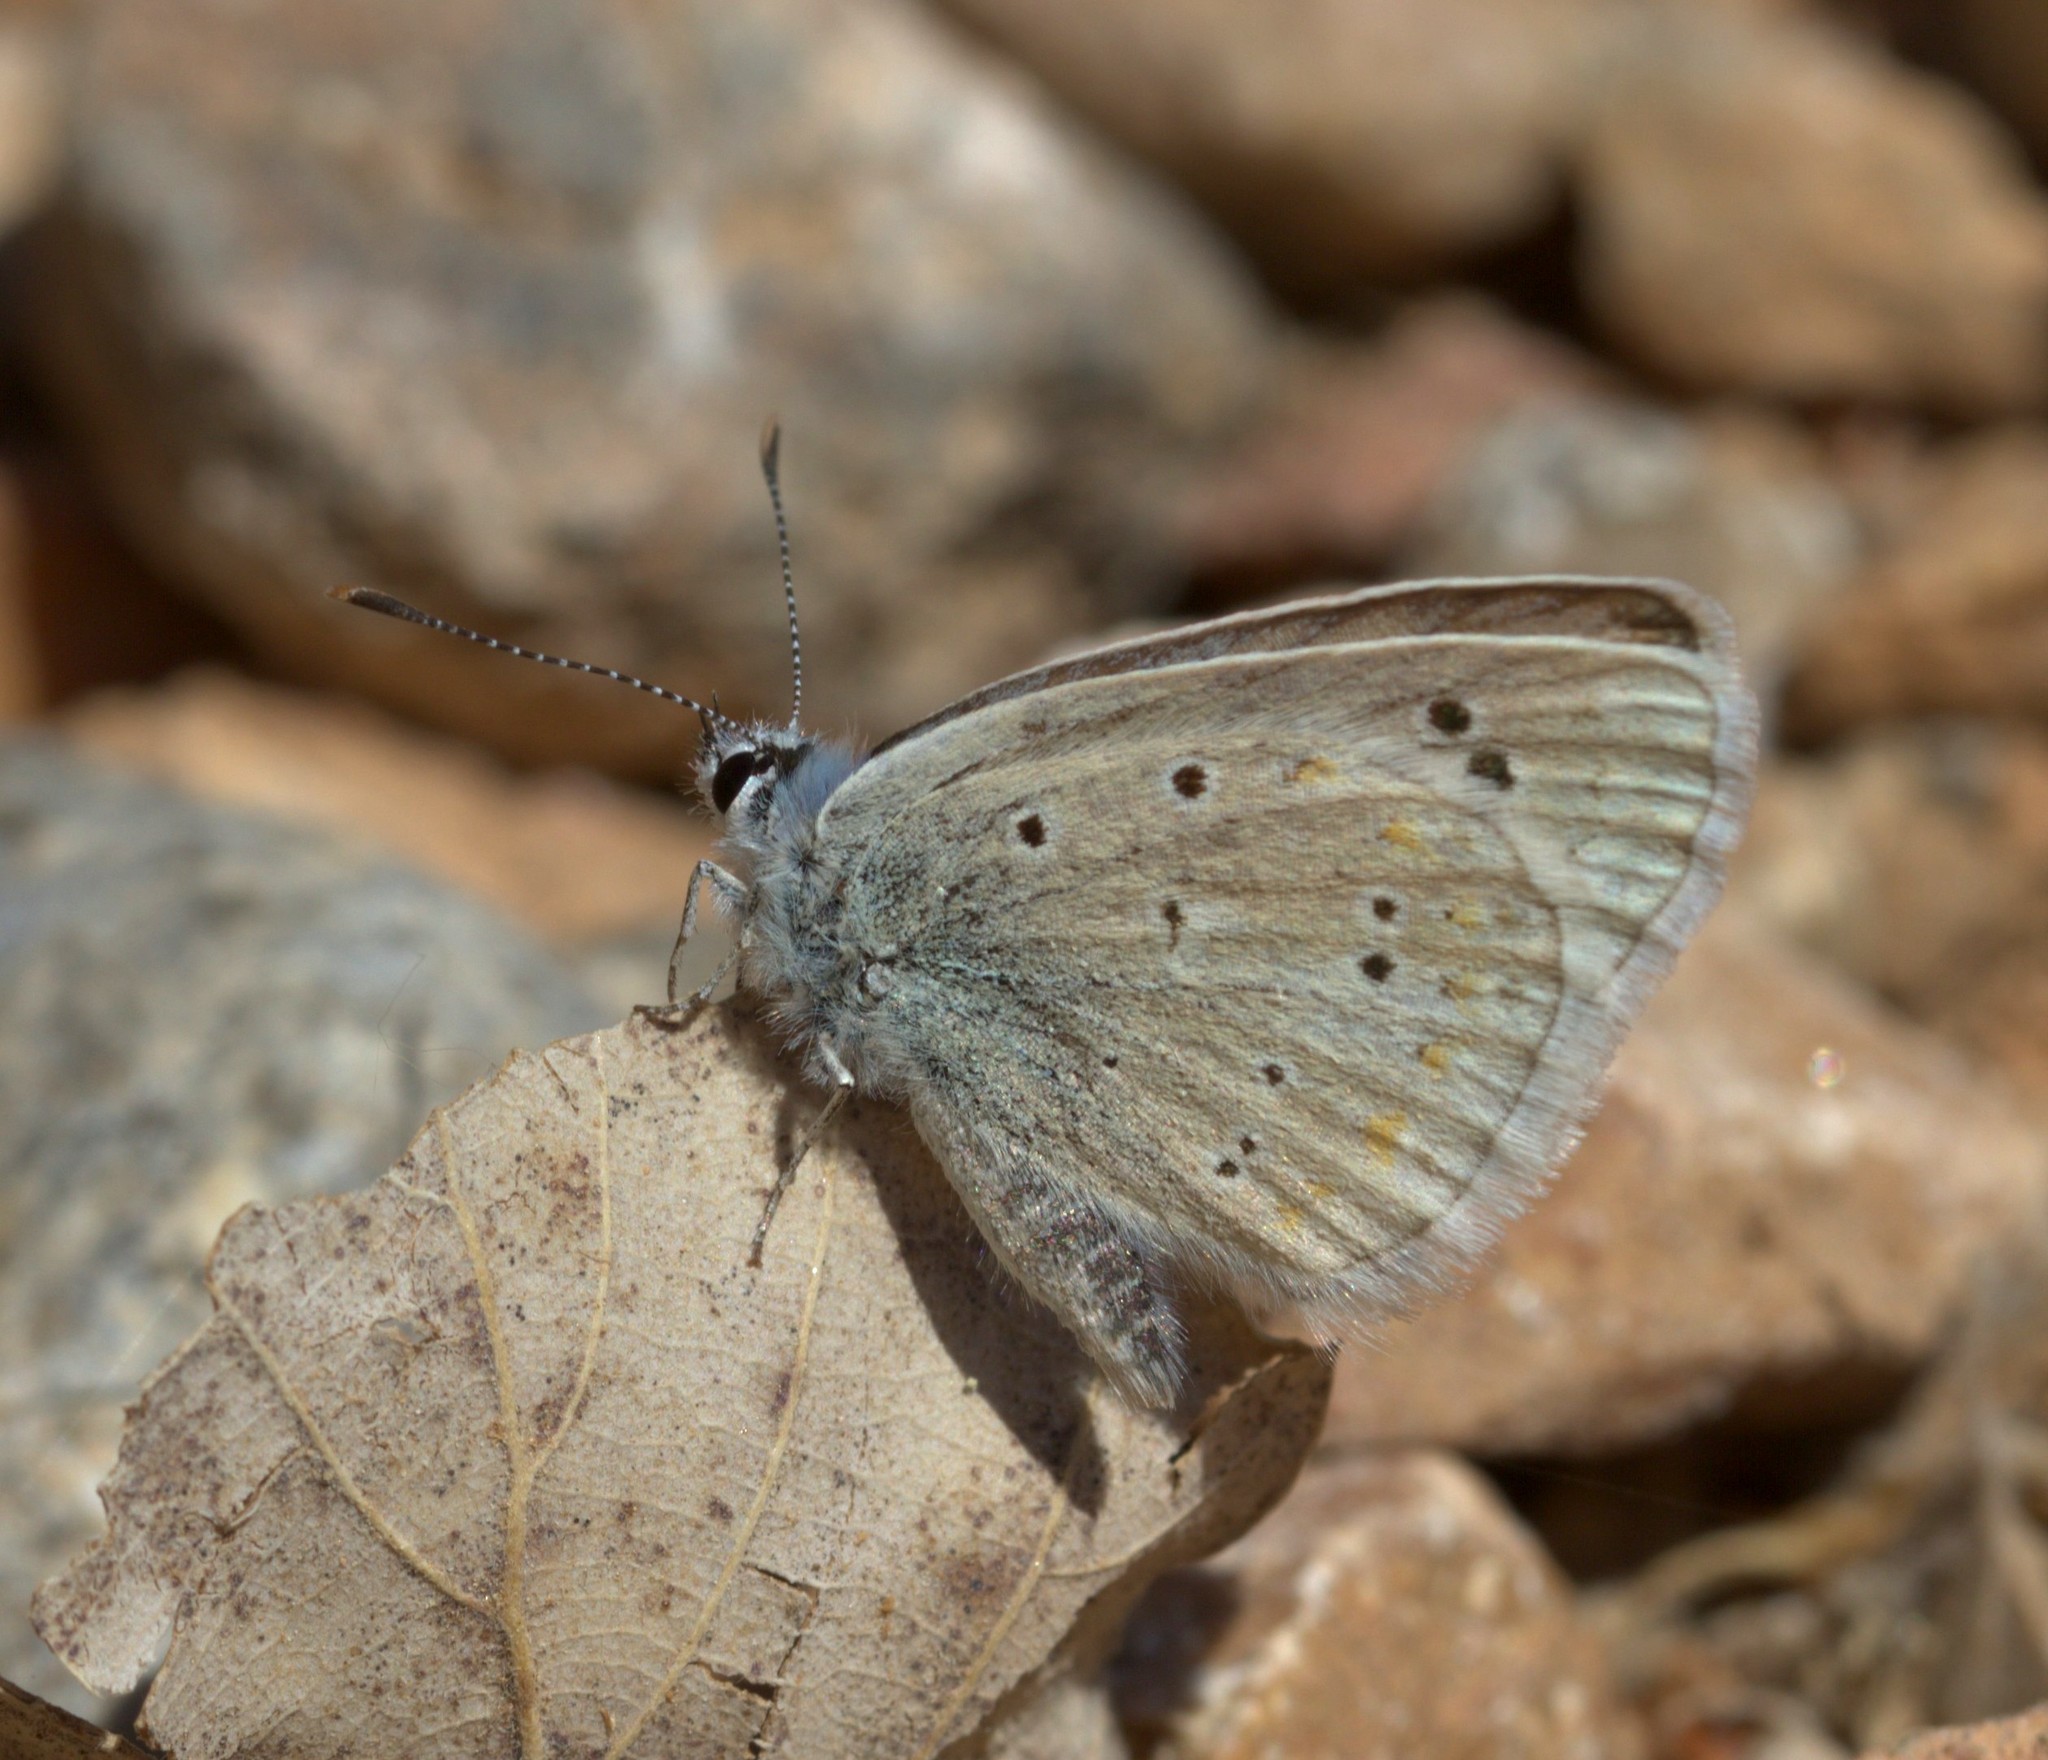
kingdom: Animalia
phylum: Arthropoda
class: Insecta
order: Lepidoptera
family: Lycaenidae
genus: Polyommatus
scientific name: Polyommatus nivescens
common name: Mother-of-pearl blue
